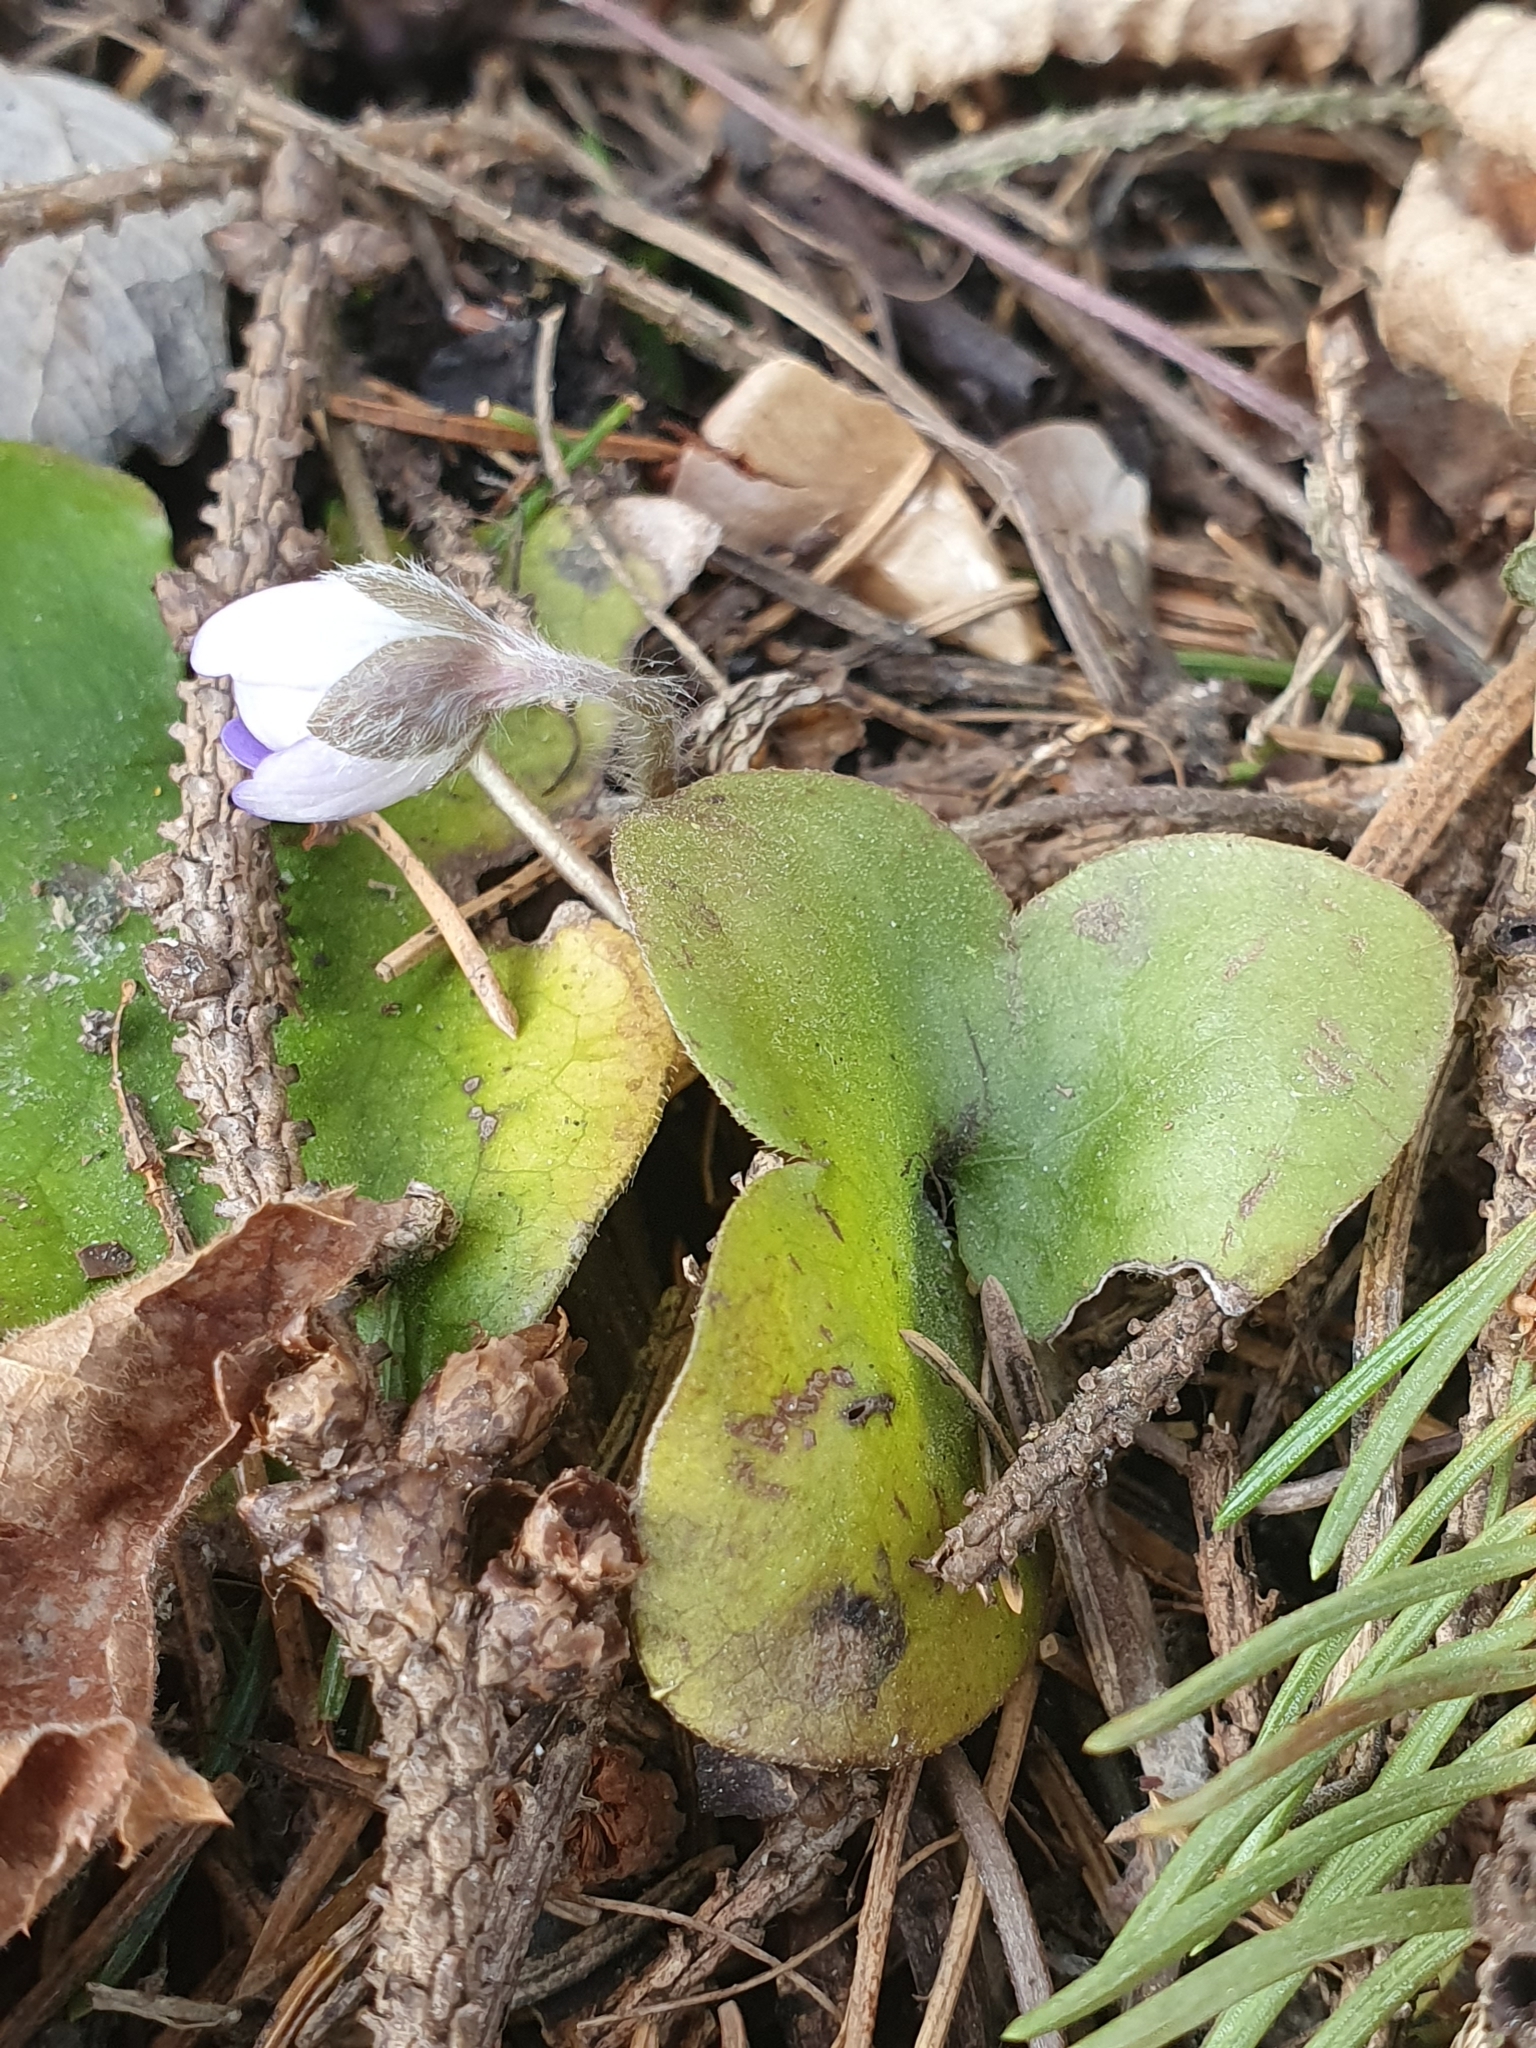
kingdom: Plantae
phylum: Tracheophyta
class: Magnoliopsida
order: Ranunculales
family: Ranunculaceae
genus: Hepatica
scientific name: Hepatica nobilis
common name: Liverleaf
